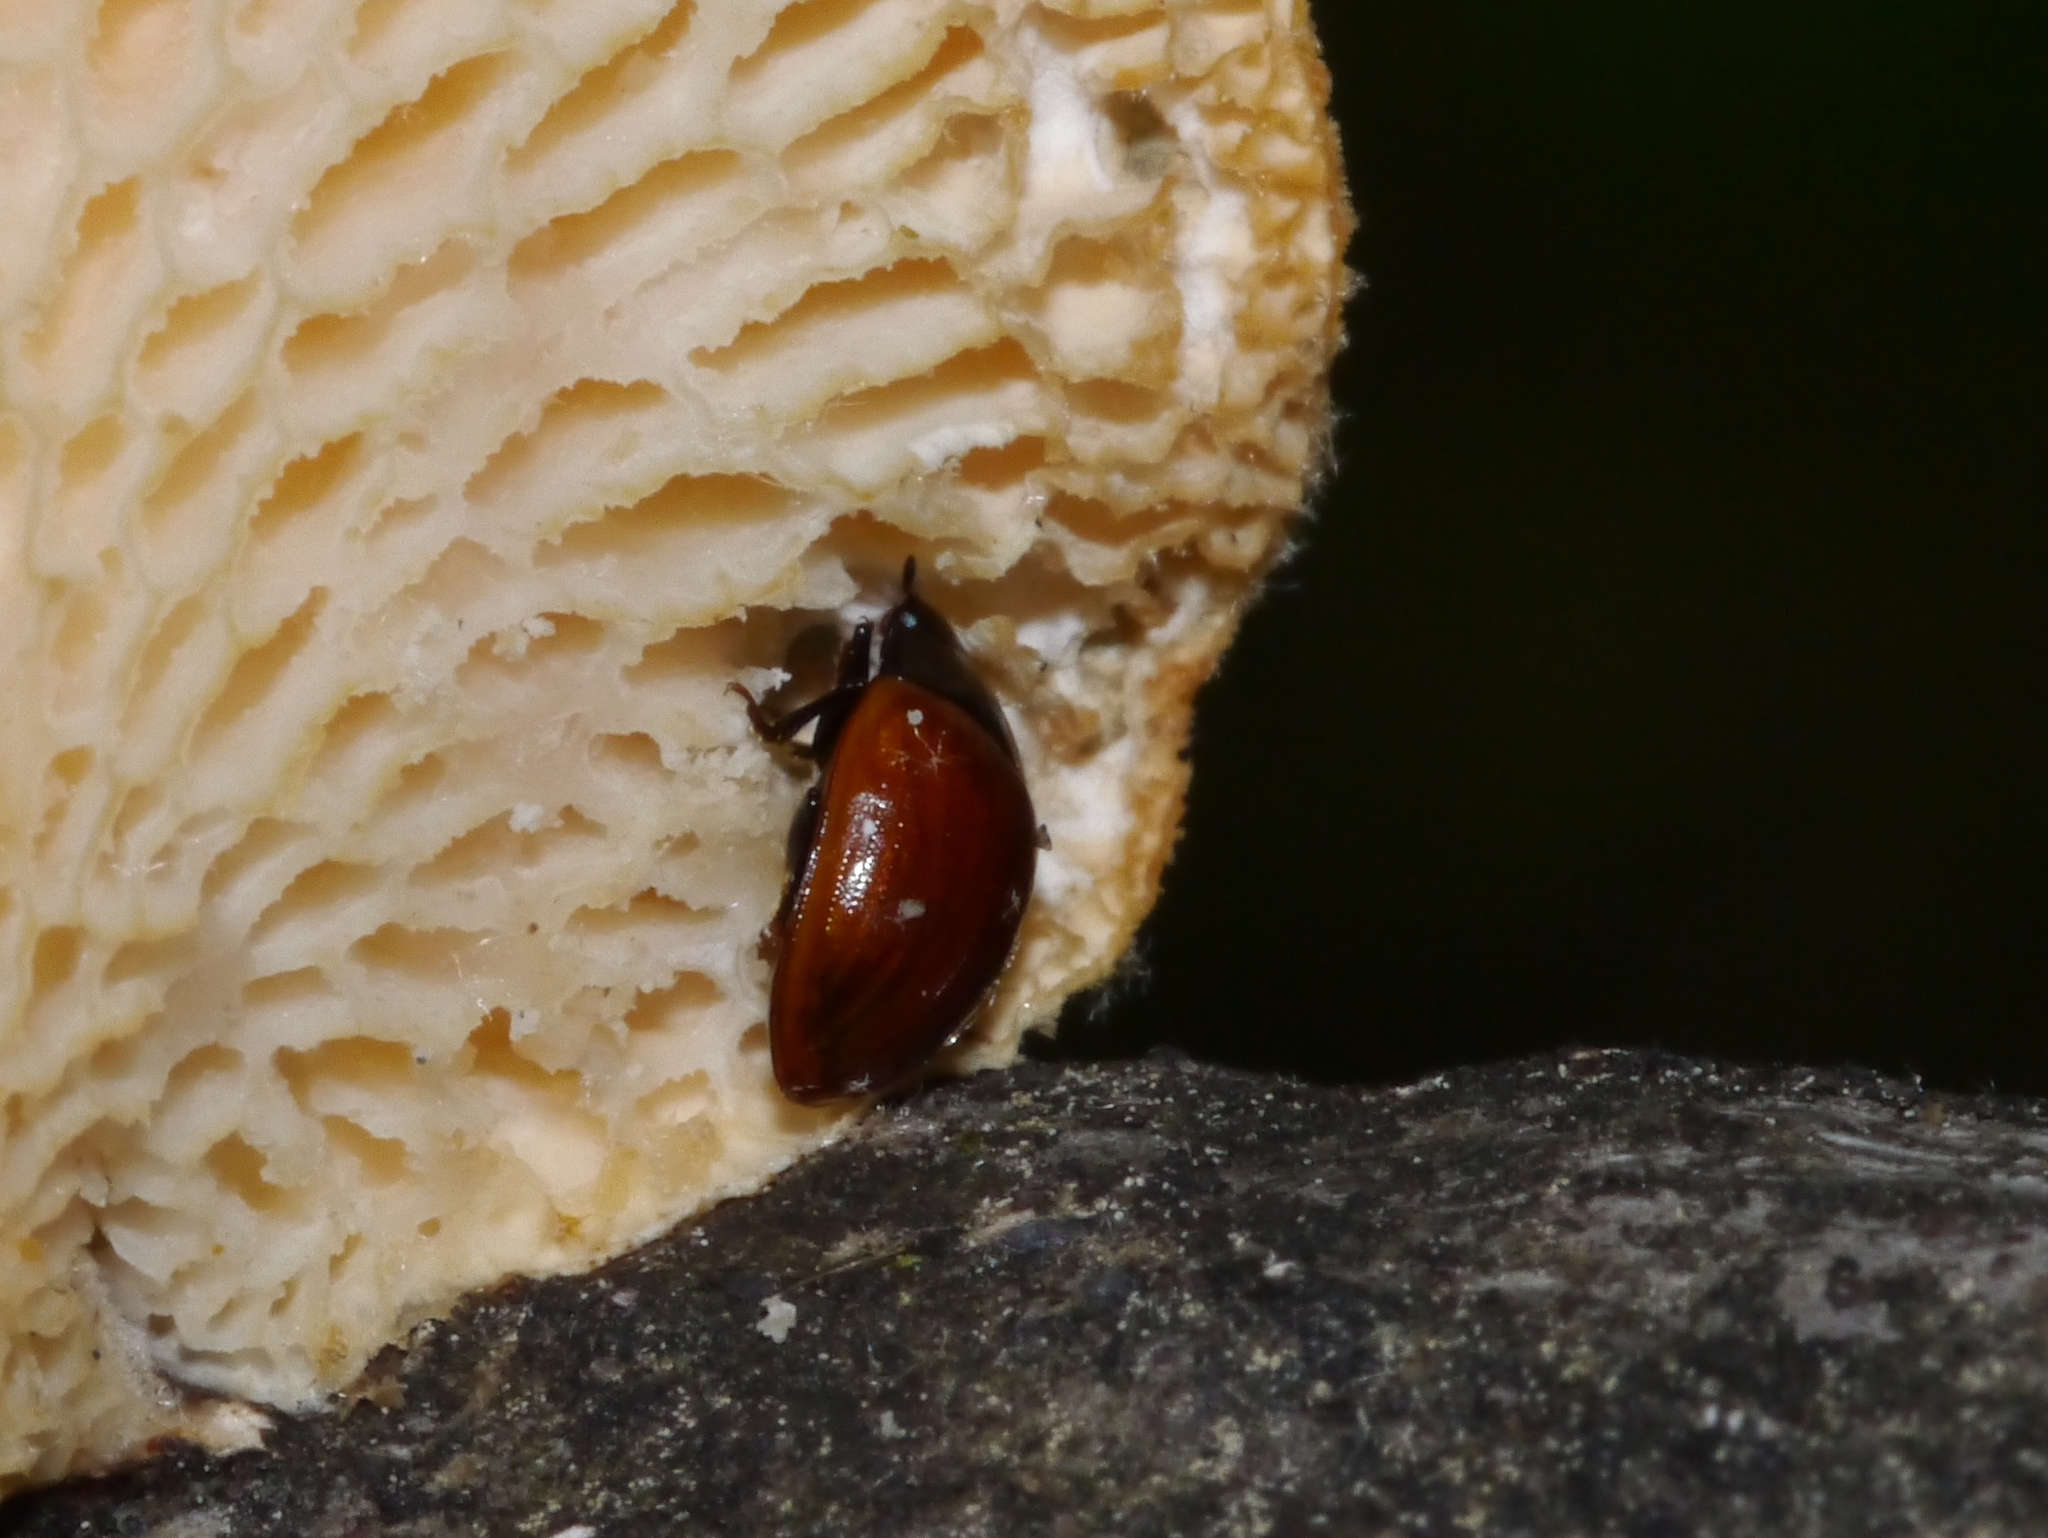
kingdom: Animalia
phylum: Arthropoda
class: Insecta
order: Coleoptera
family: Erotylidae
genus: Tritoma
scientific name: Tritoma sanguinipennis
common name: Red-winged tritoma
